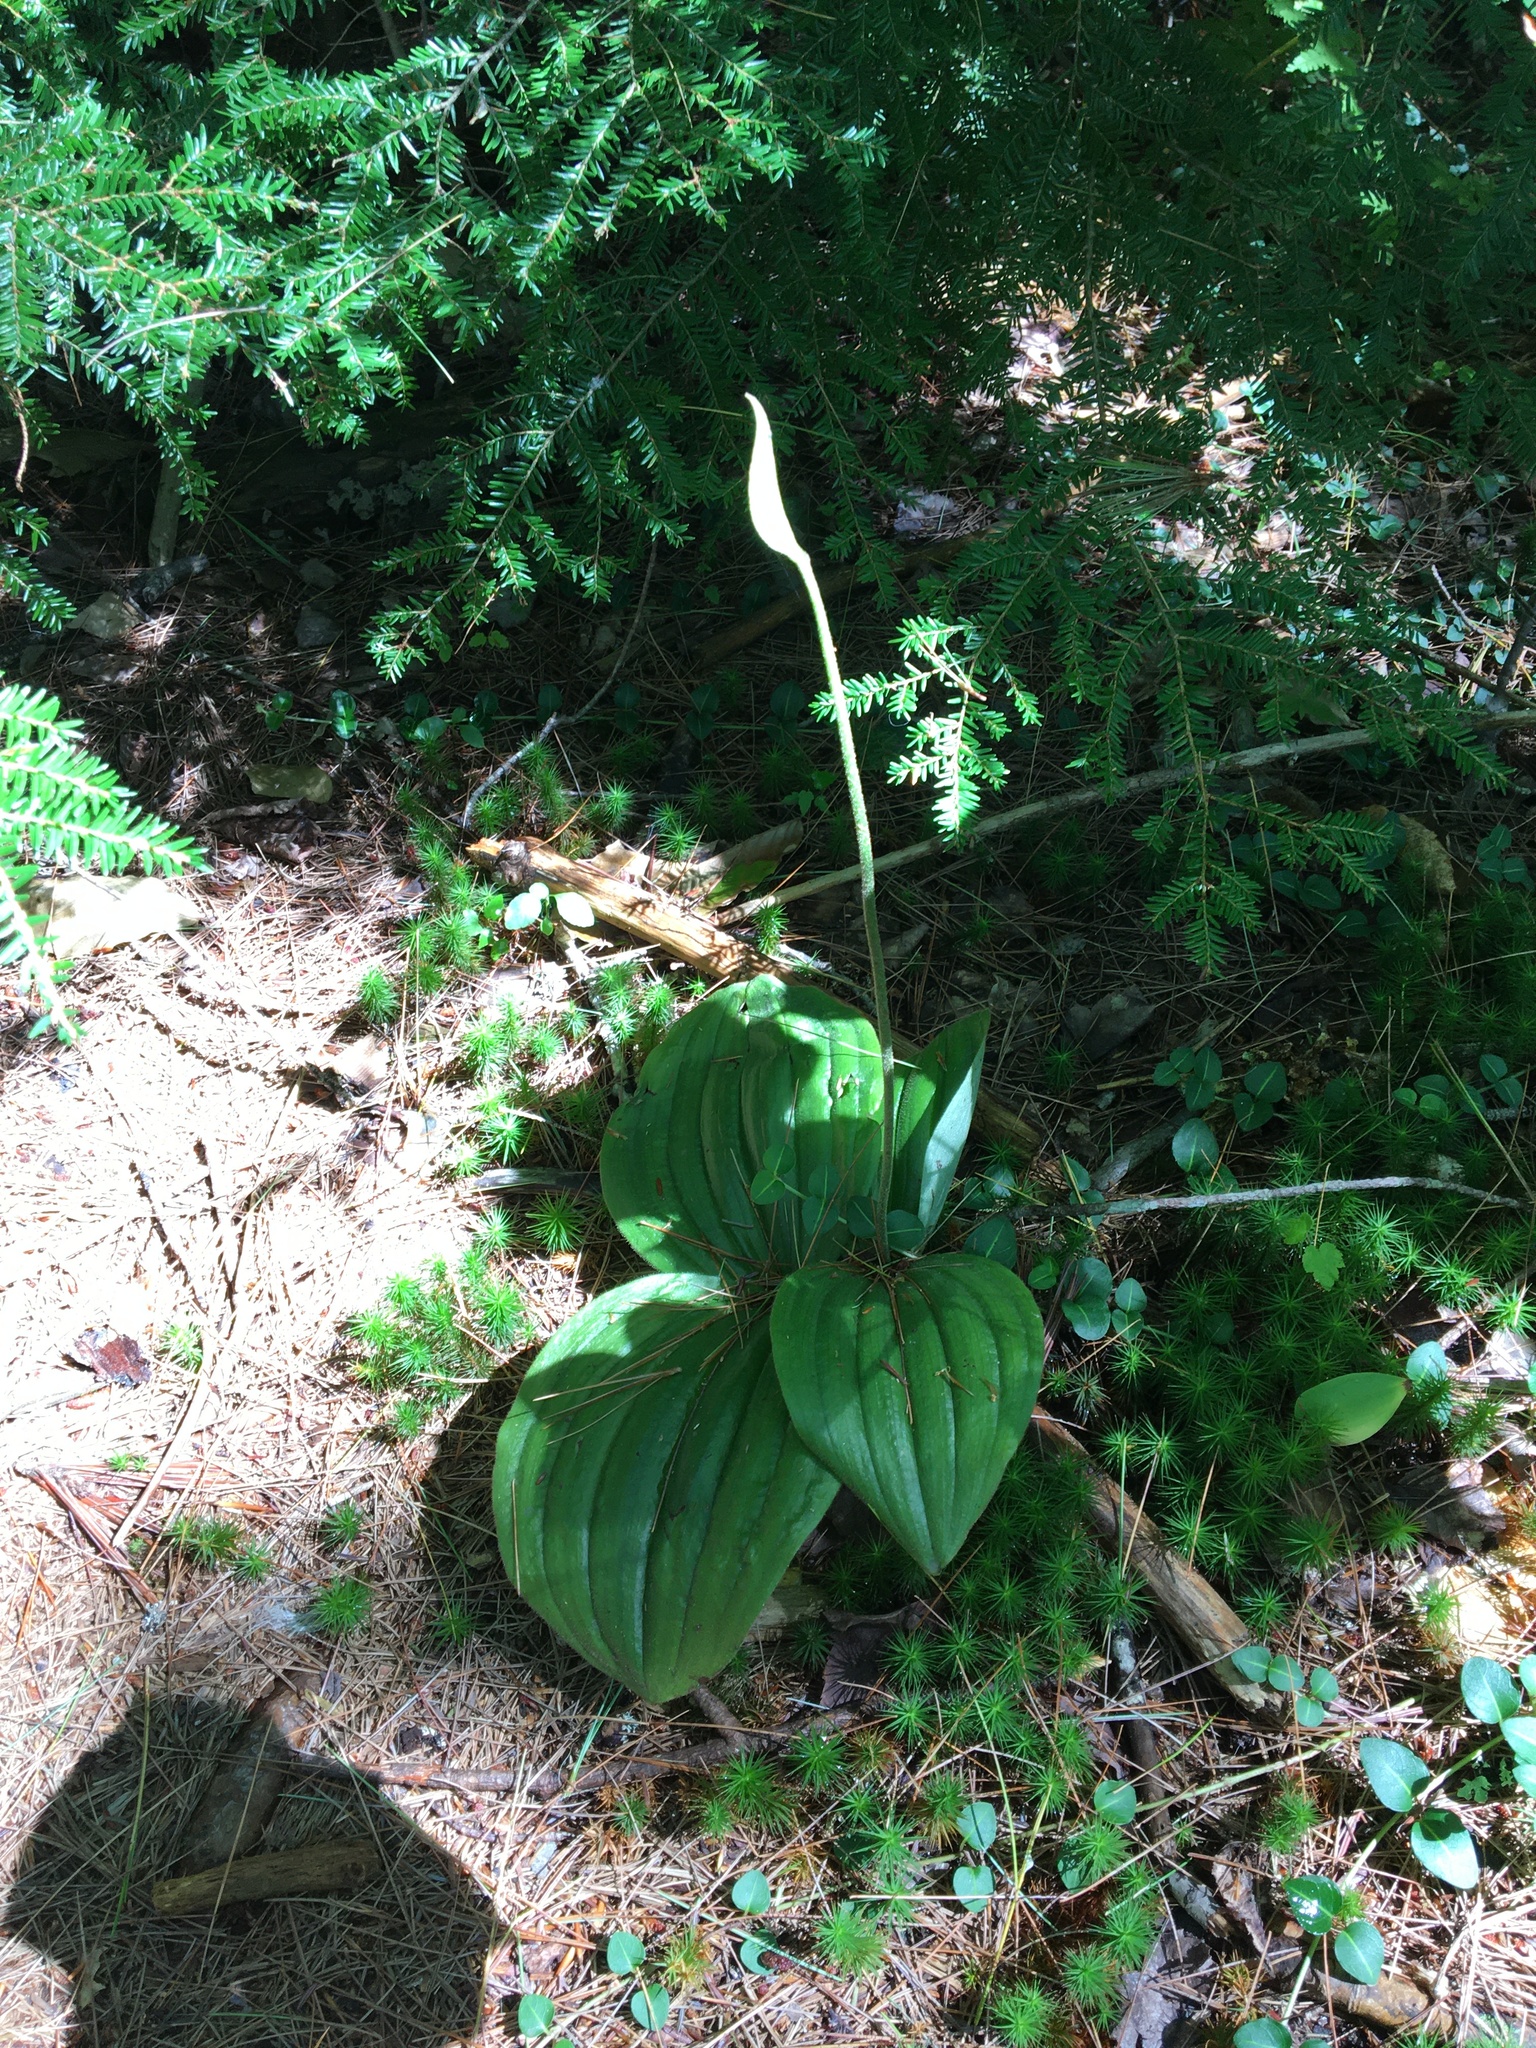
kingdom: Plantae
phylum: Tracheophyta
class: Liliopsida
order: Asparagales
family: Orchidaceae
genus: Cypripedium
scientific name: Cypripedium acaule
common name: Pink lady's-slipper
